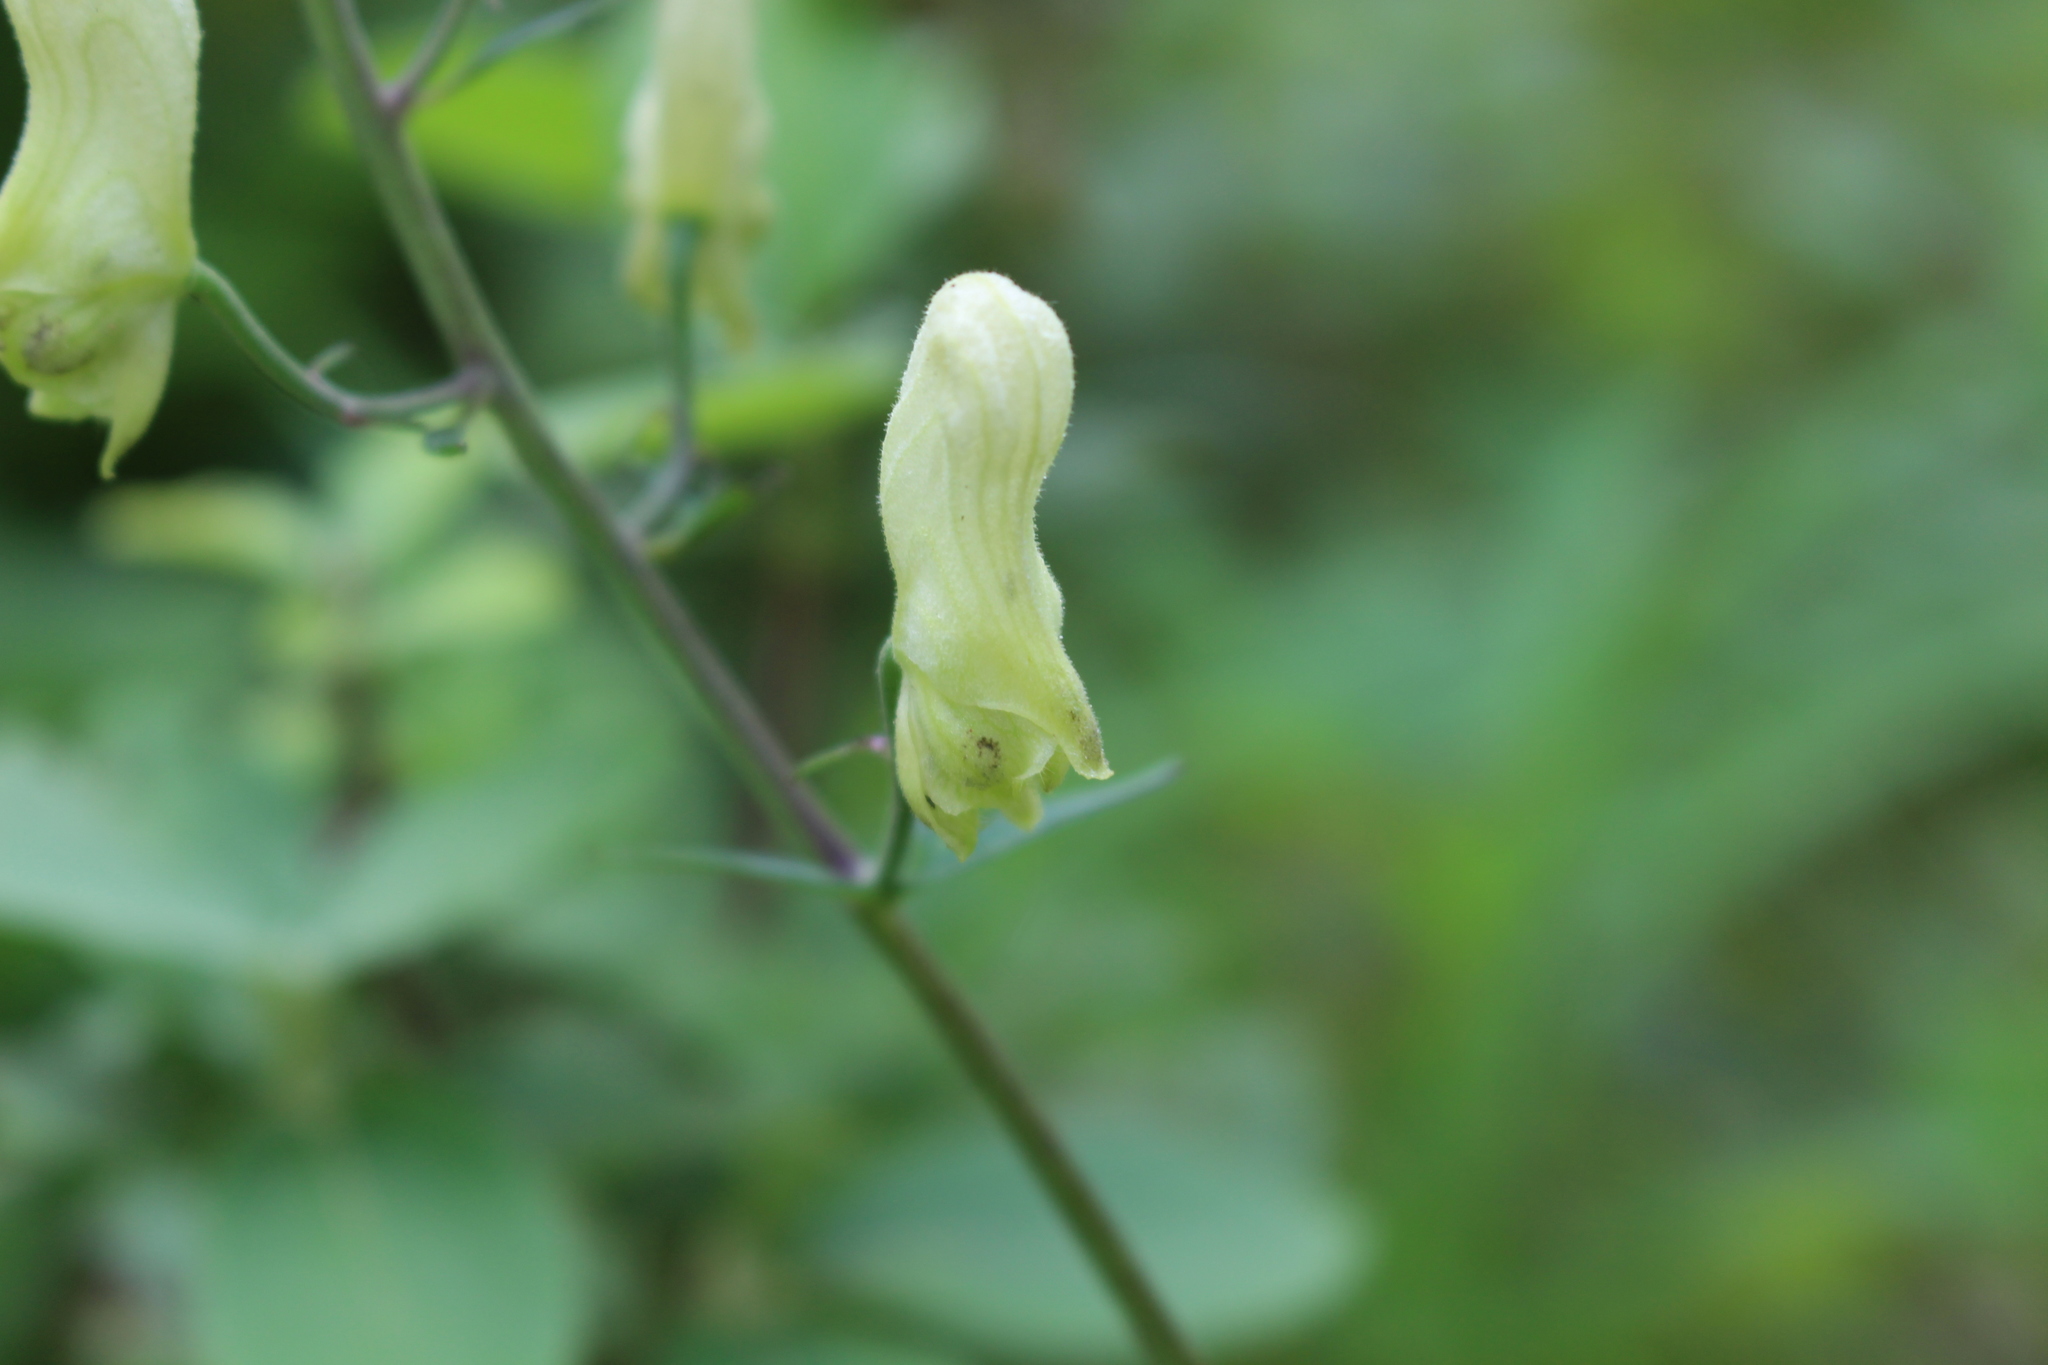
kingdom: Plantae
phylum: Tracheophyta
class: Magnoliopsida
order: Ranunculales
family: Ranunculaceae
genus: Aconitum
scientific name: Aconitum lycoctonum
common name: Wolf's-bane
